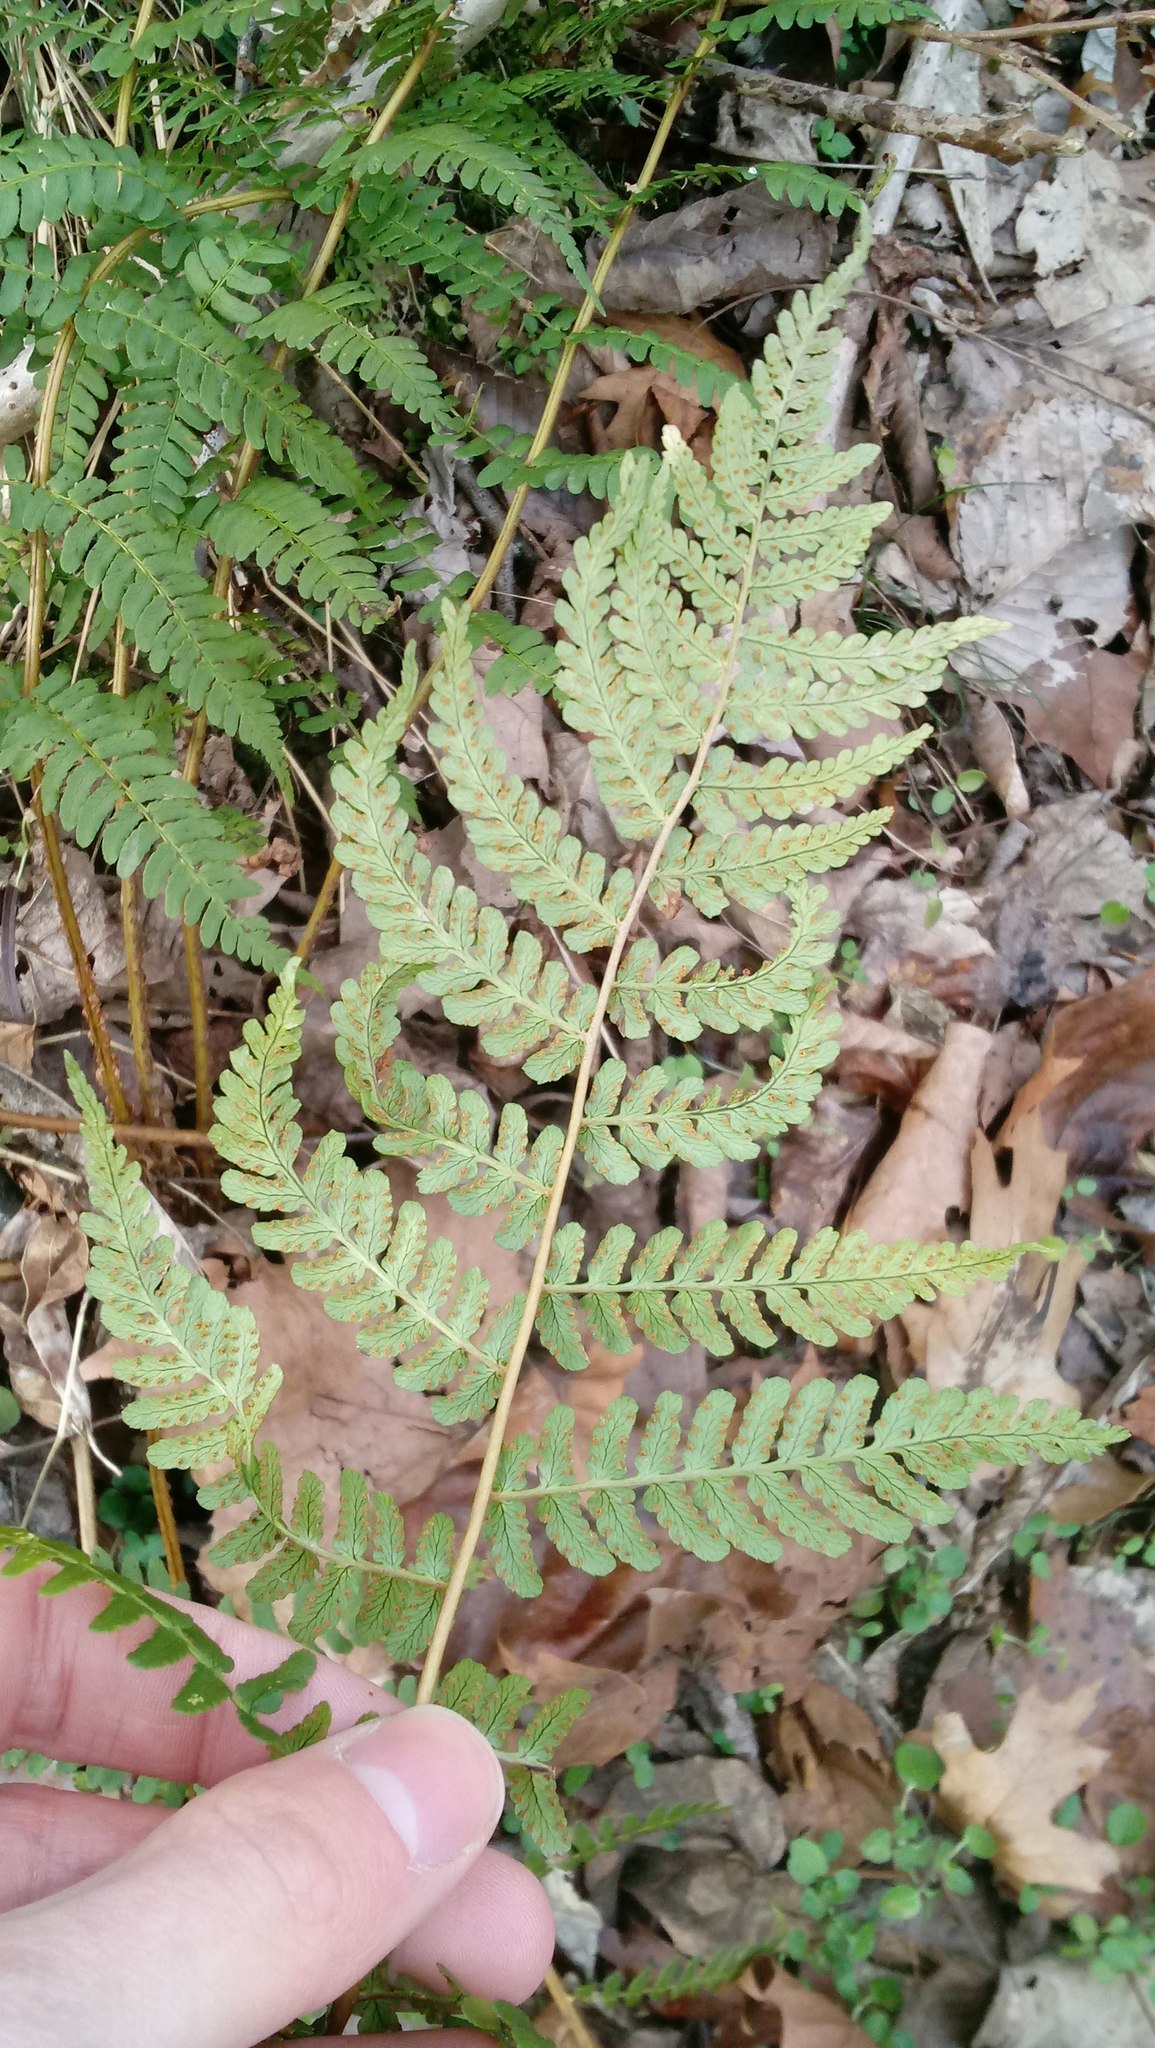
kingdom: Plantae
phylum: Tracheophyta
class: Polypodiopsida
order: Polypodiales
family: Dryopteridaceae
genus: Dryopteris
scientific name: Dryopteris marginalis
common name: Marginal wood fern
